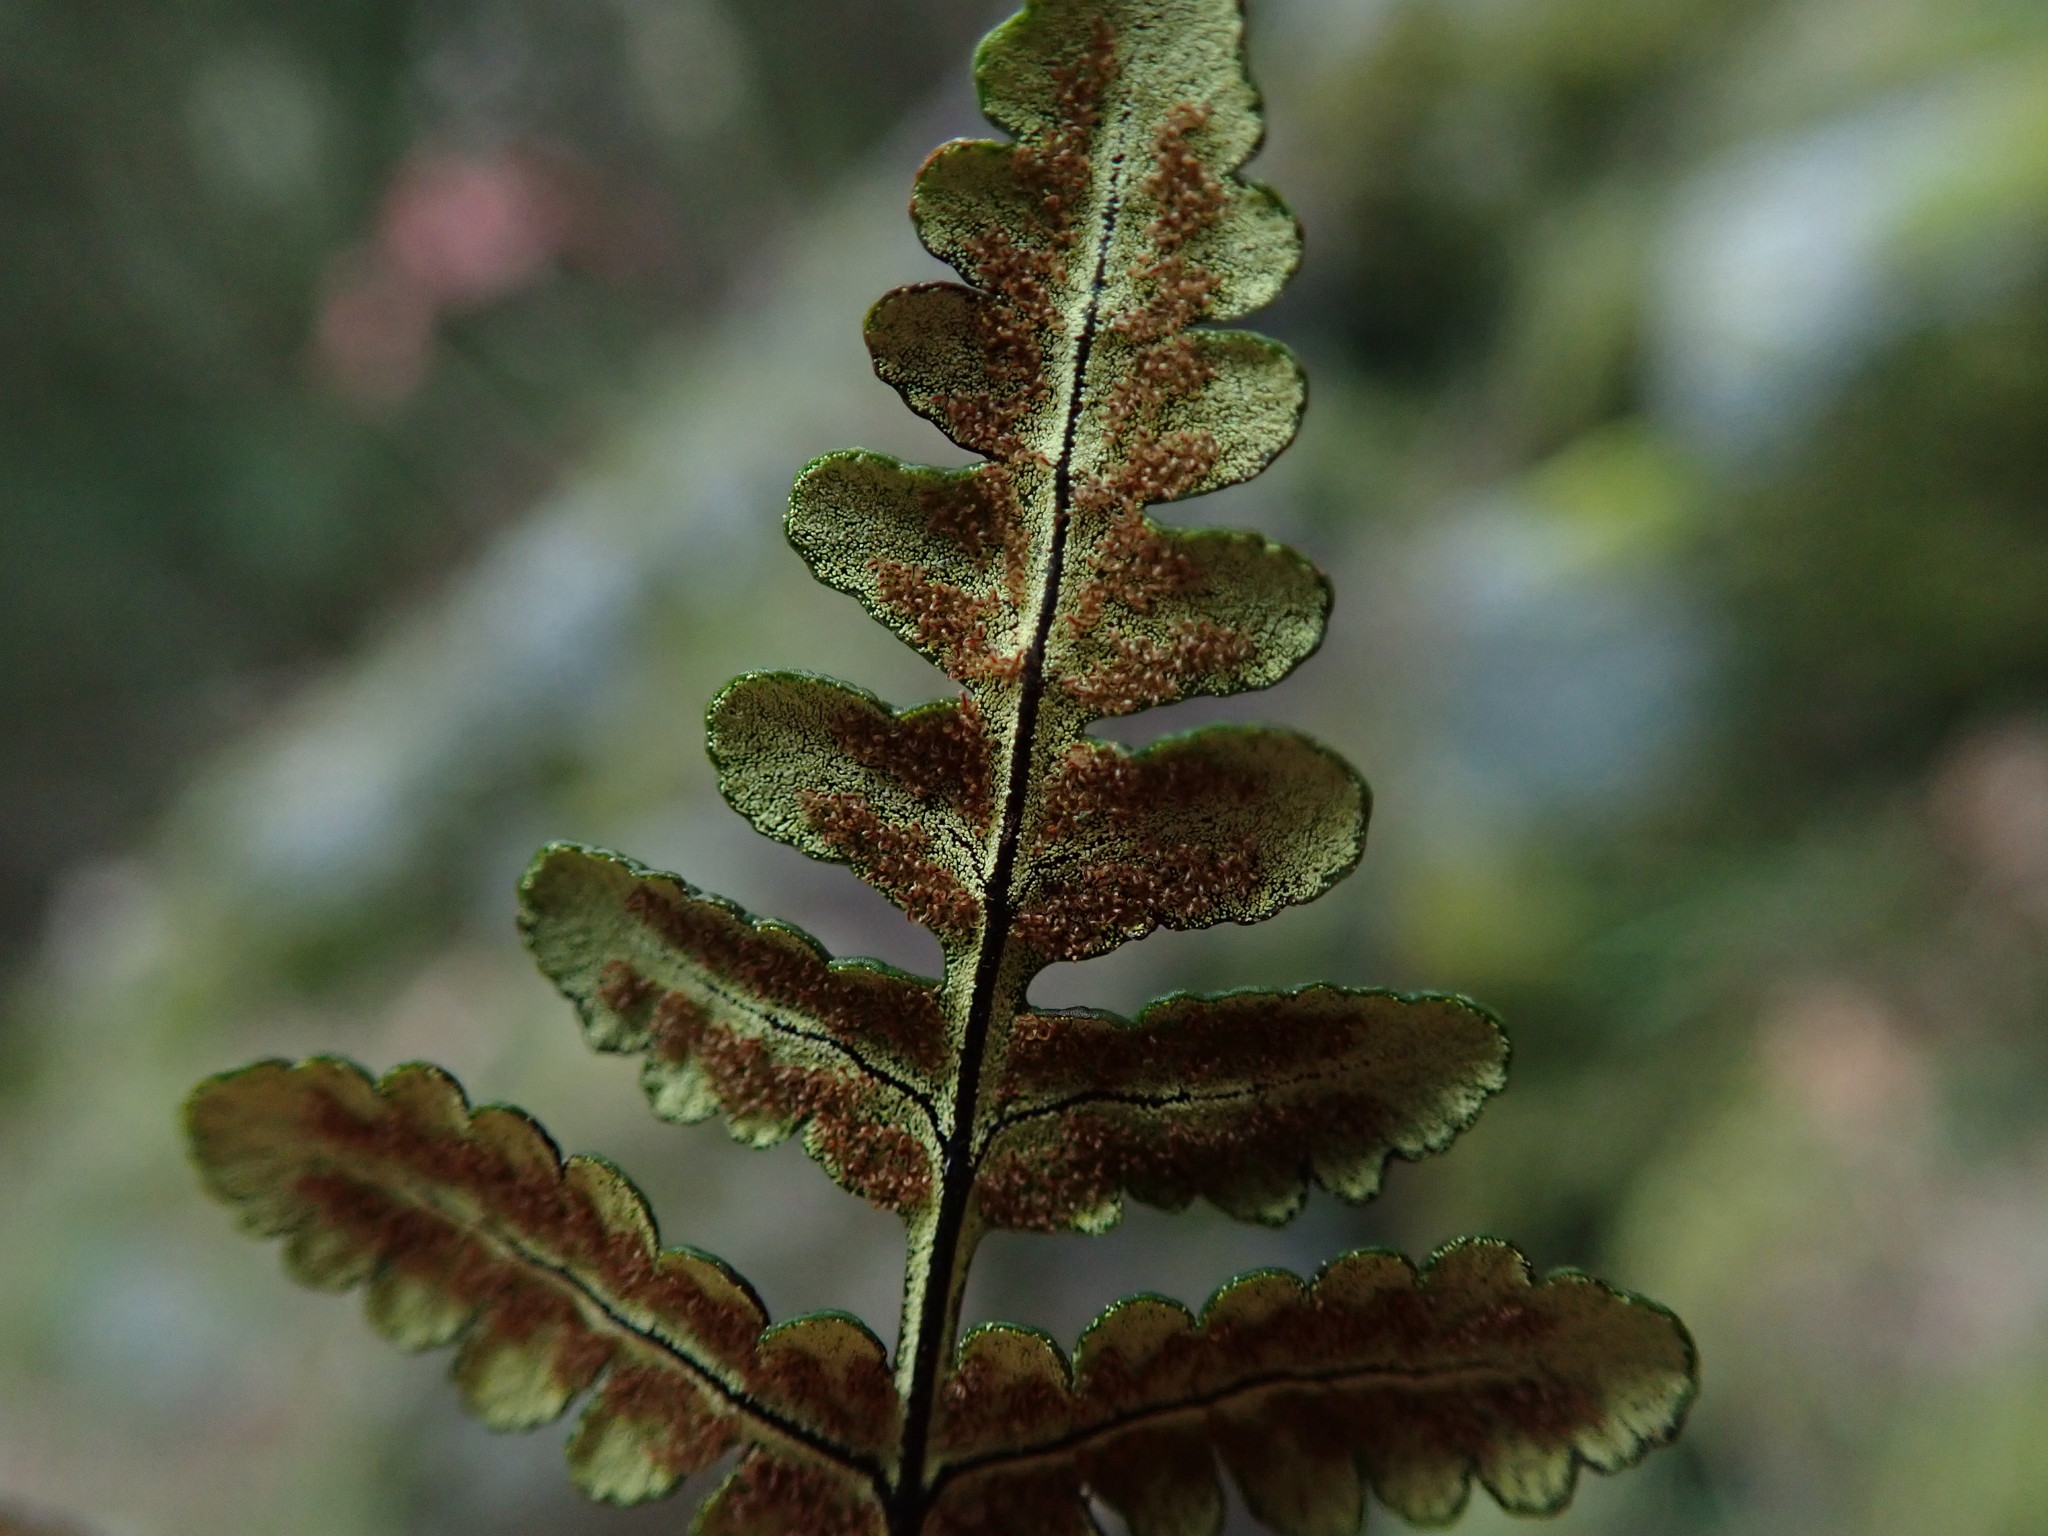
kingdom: Plantae
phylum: Tracheophyta
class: Polypodiopsida
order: Polypodiales
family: Pteridaceae
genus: Pentagramma
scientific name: Pentagramma triangularis
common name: Gold fern
